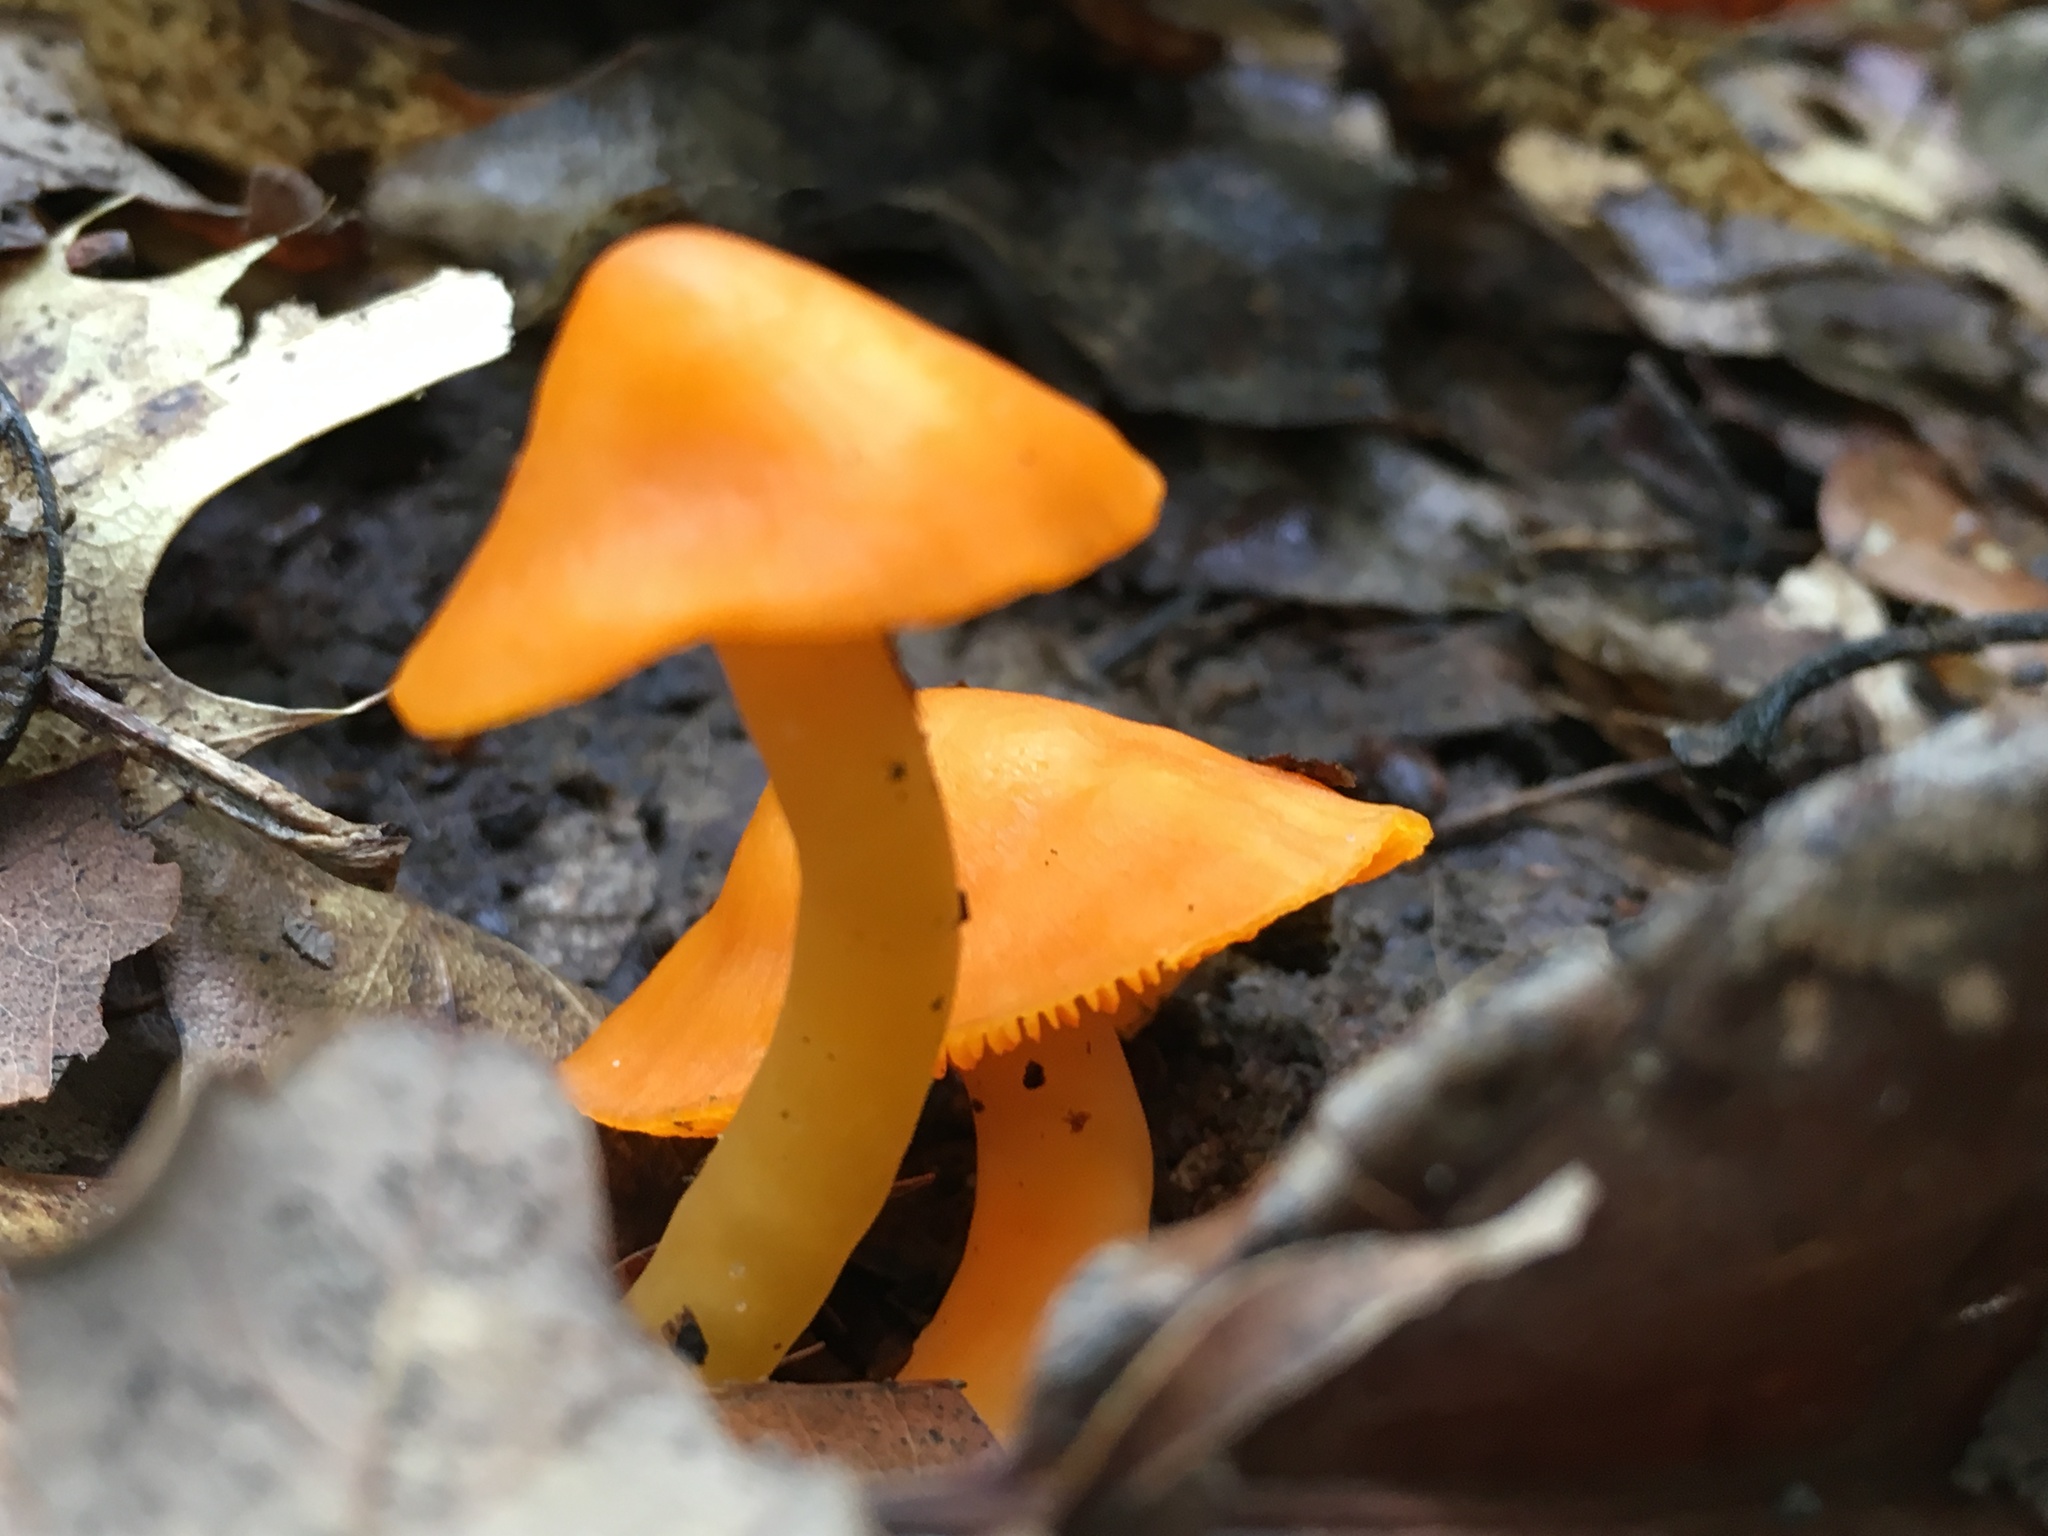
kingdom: Fungi
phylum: Basidiomycota
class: Agaricomycetes
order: Agaricales
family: Hygrophoraceae
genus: Humidicutis
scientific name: Humidicutis marginata
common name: Orange gilled waxcap
